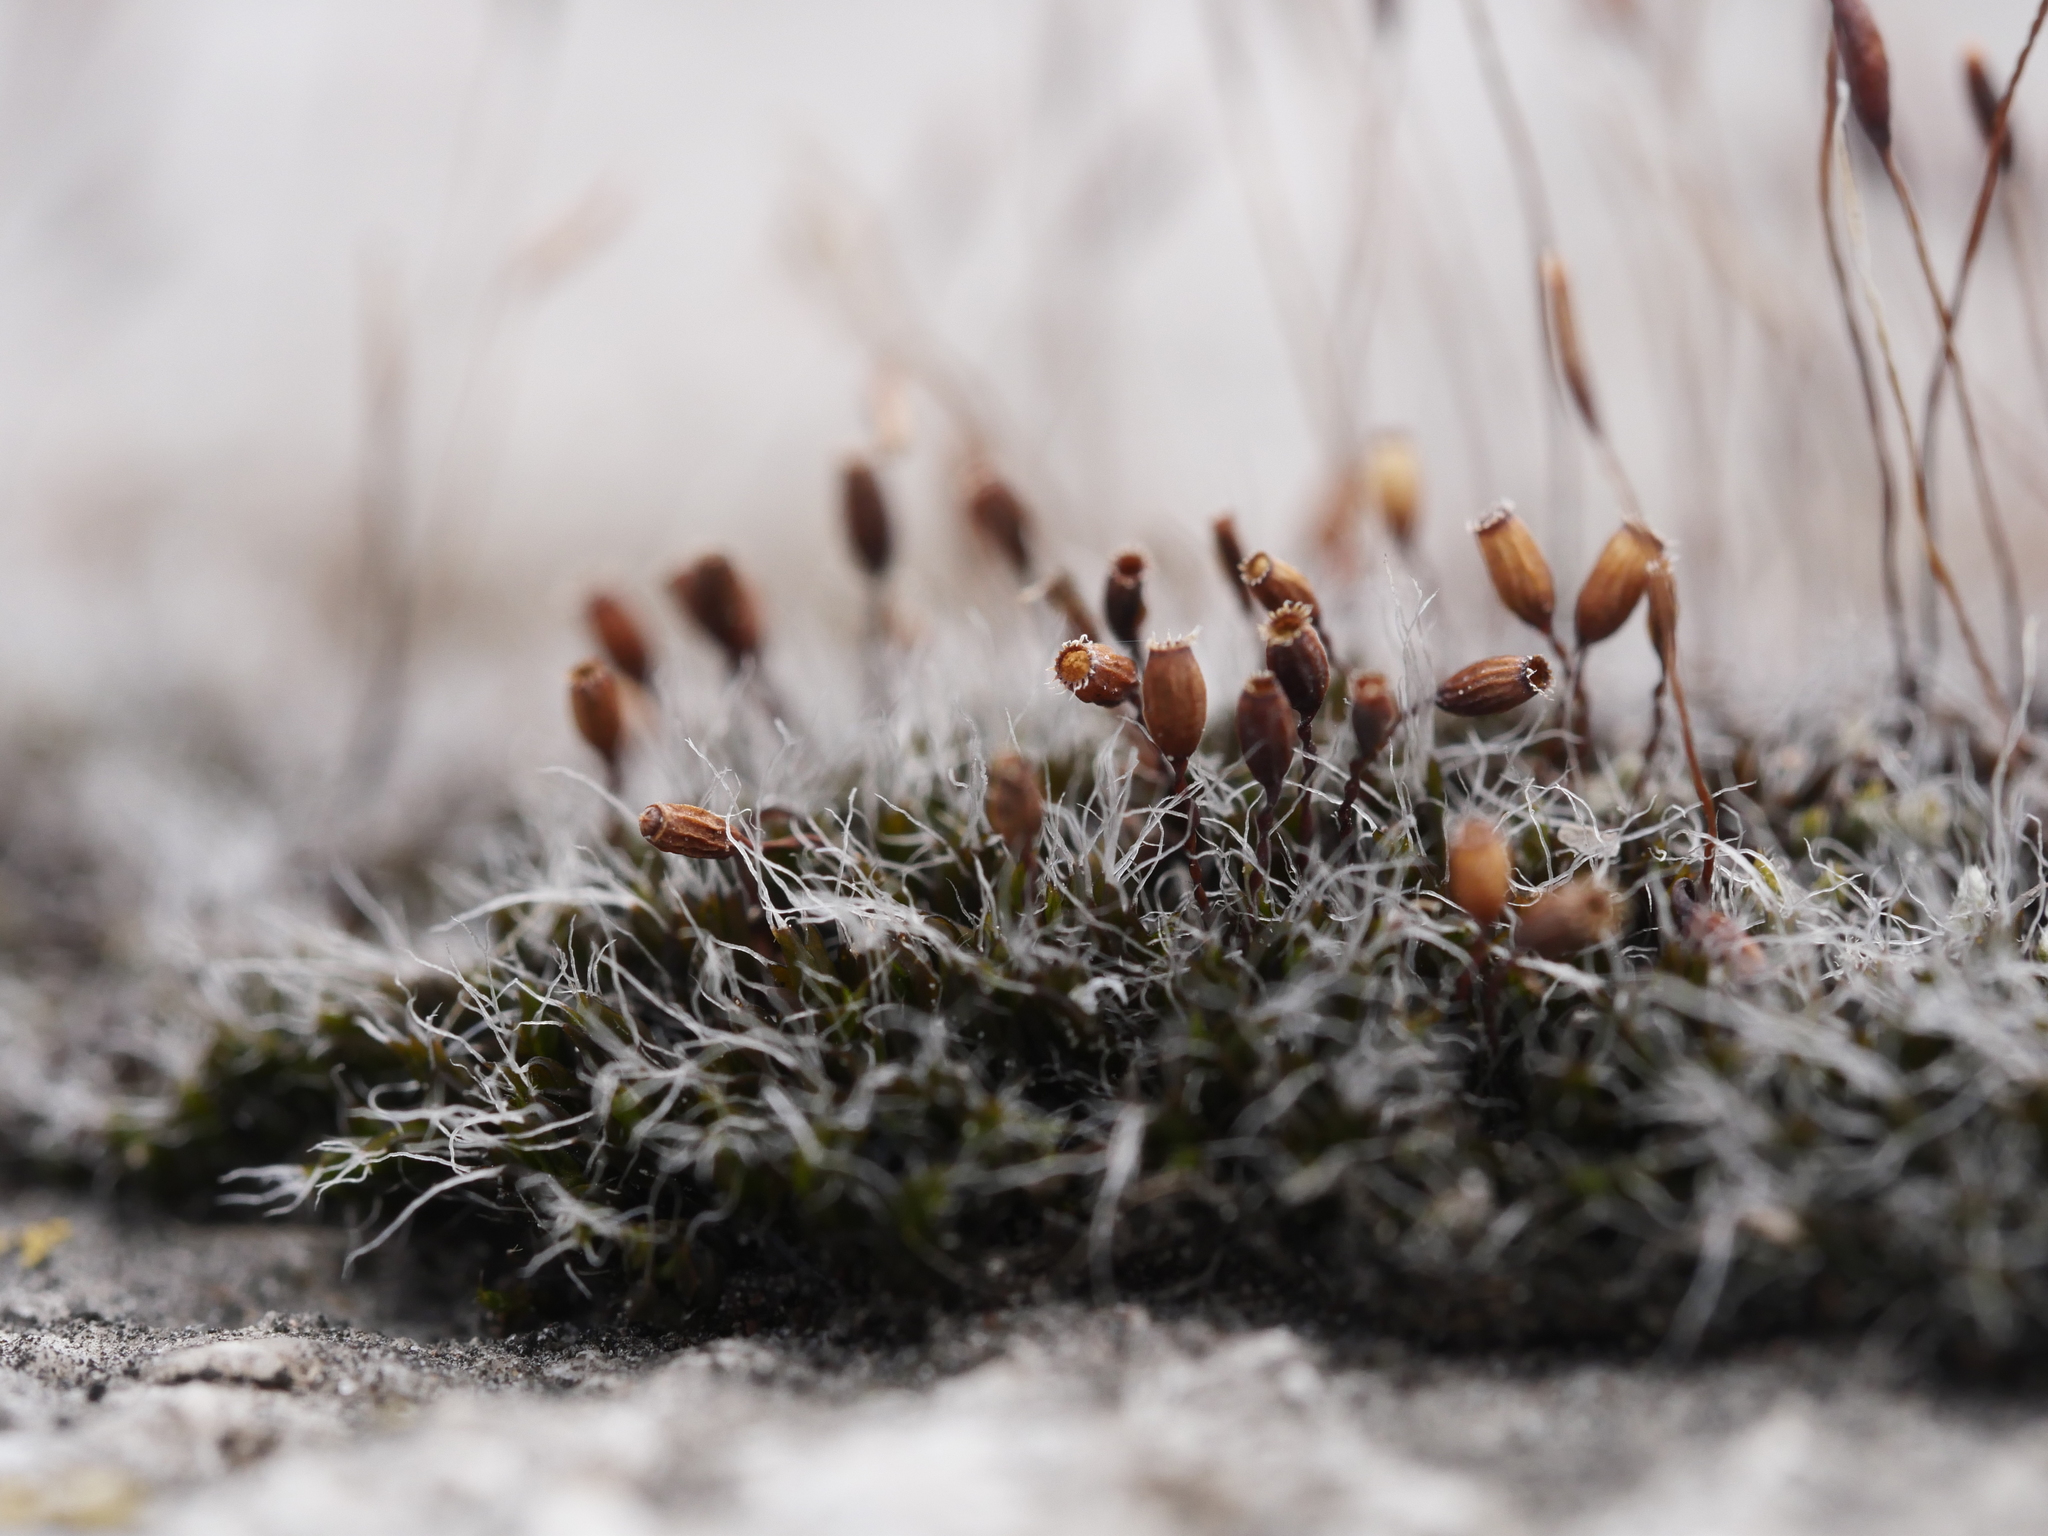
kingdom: Plantae
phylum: Bryophyta
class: Bryopsida
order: Grimmiales
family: Grimmiaceae
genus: Grimmia
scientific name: Grimmia pulvinata
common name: Grey-cushioned grimmia
